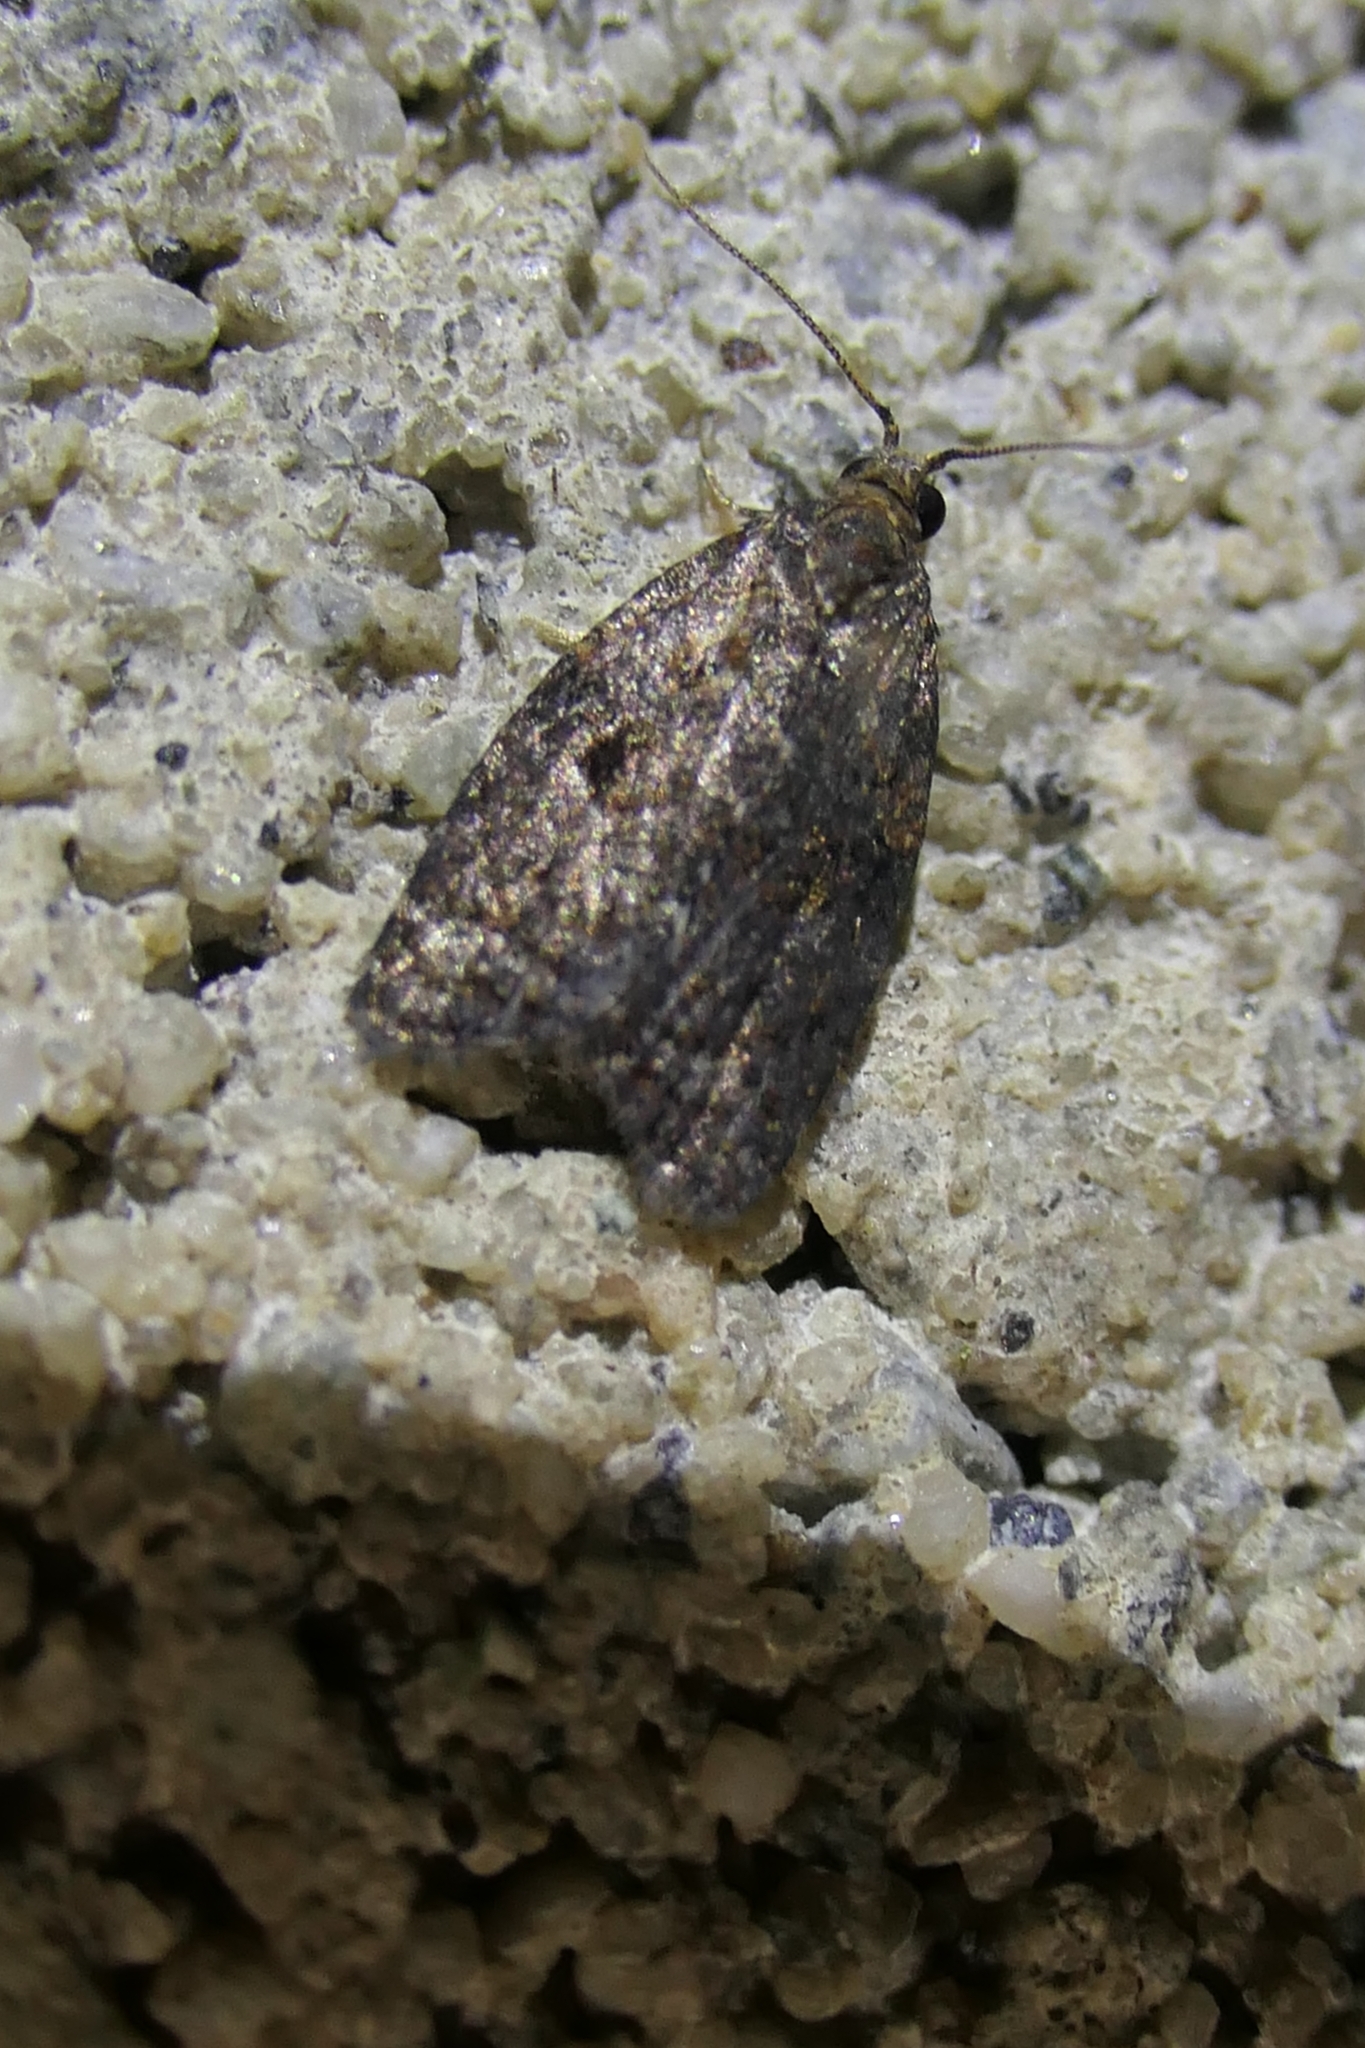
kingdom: Animalia
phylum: Arthropoda
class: Insecta
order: Lepidoptera
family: Tortricidae
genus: Capua
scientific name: Capua intractana
